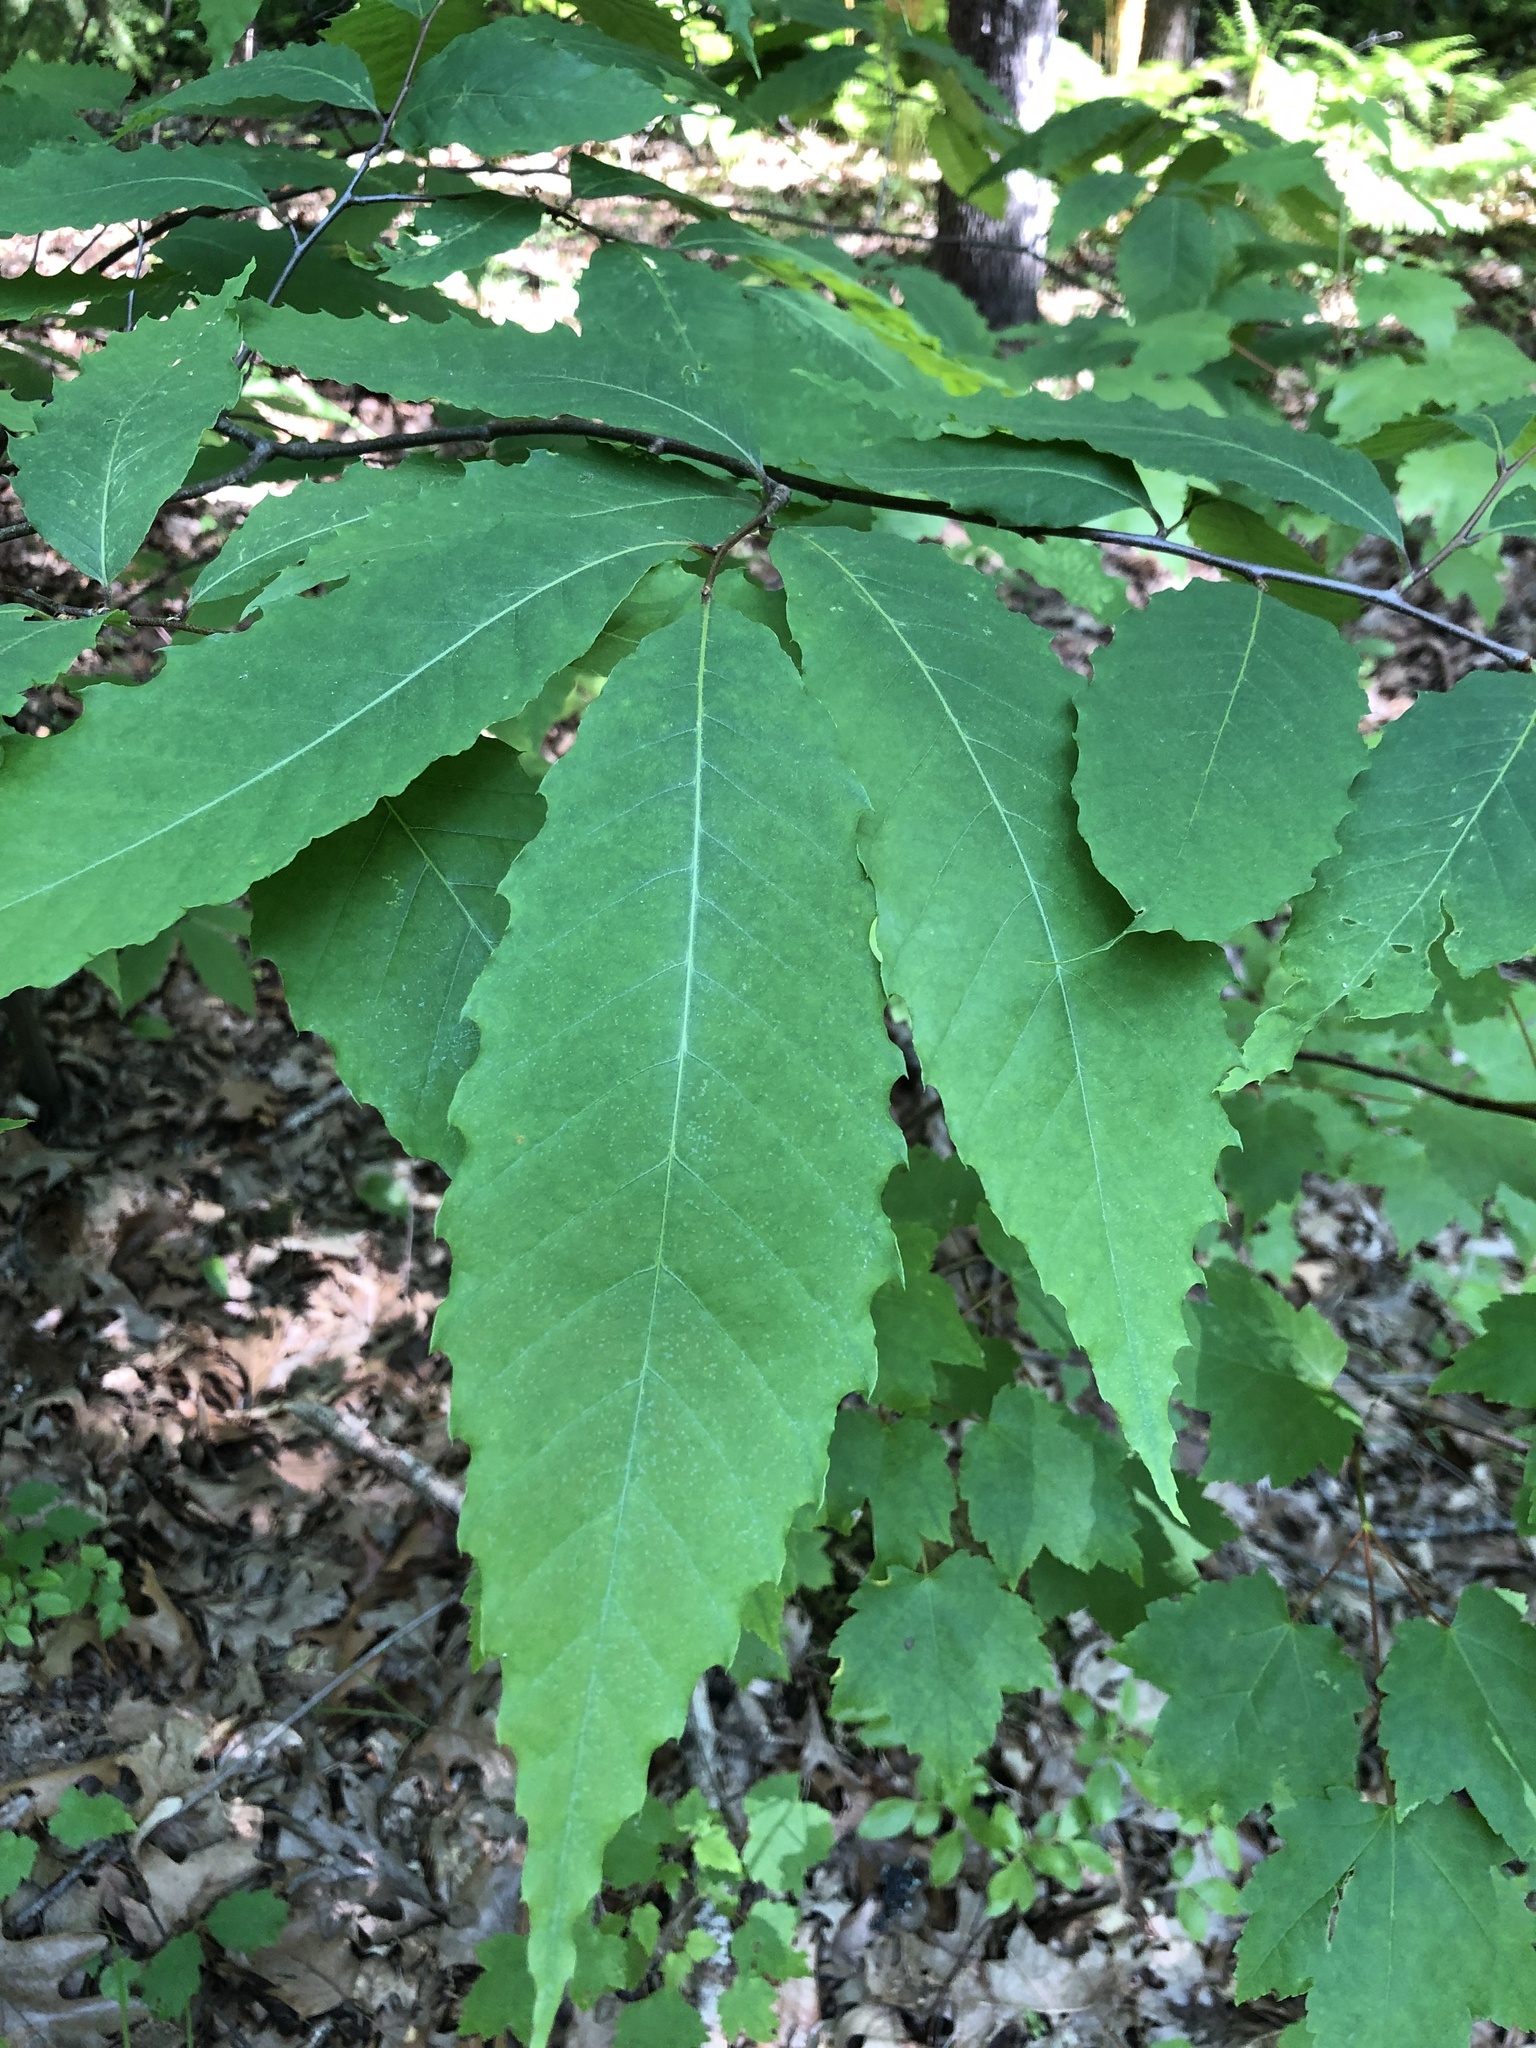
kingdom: Plantae
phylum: Tracheophyta
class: Magnoliopsida
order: Fagales
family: Fagaceae
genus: Castanea
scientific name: Castanea dentata
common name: American chestnut
